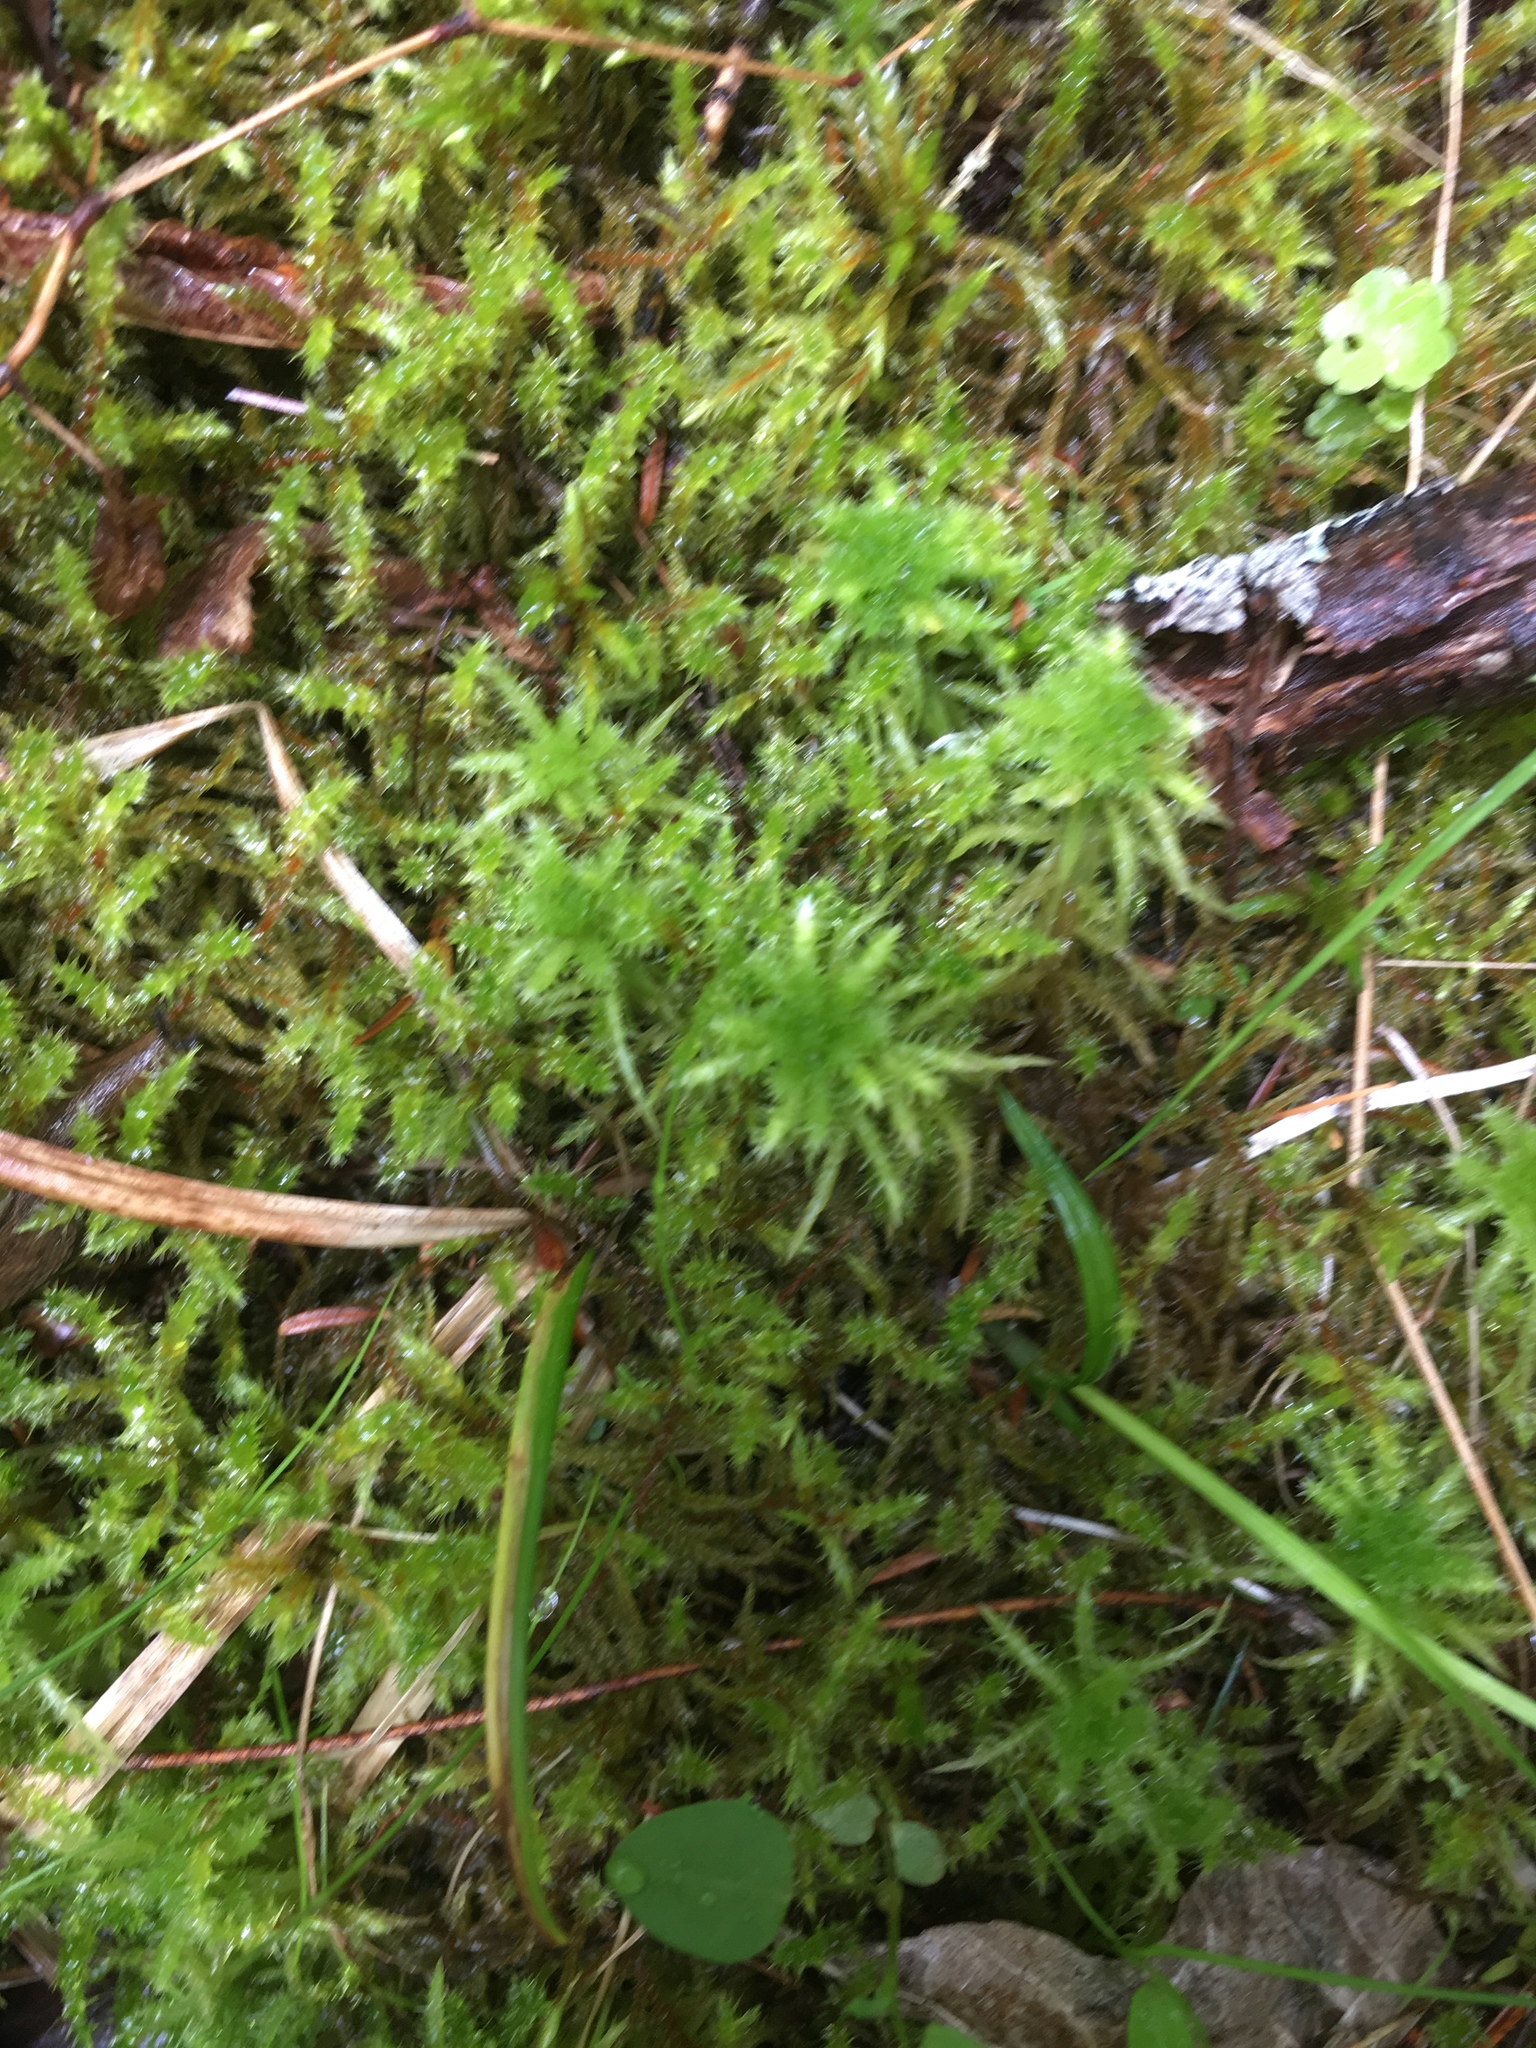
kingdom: Plantae
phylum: Bryophyta
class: Sphagnopsida
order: Sphagnales
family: Sphagnaceae
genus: Sphagnum
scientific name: Sphagnum squarrosum
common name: Shaggy peat moss
